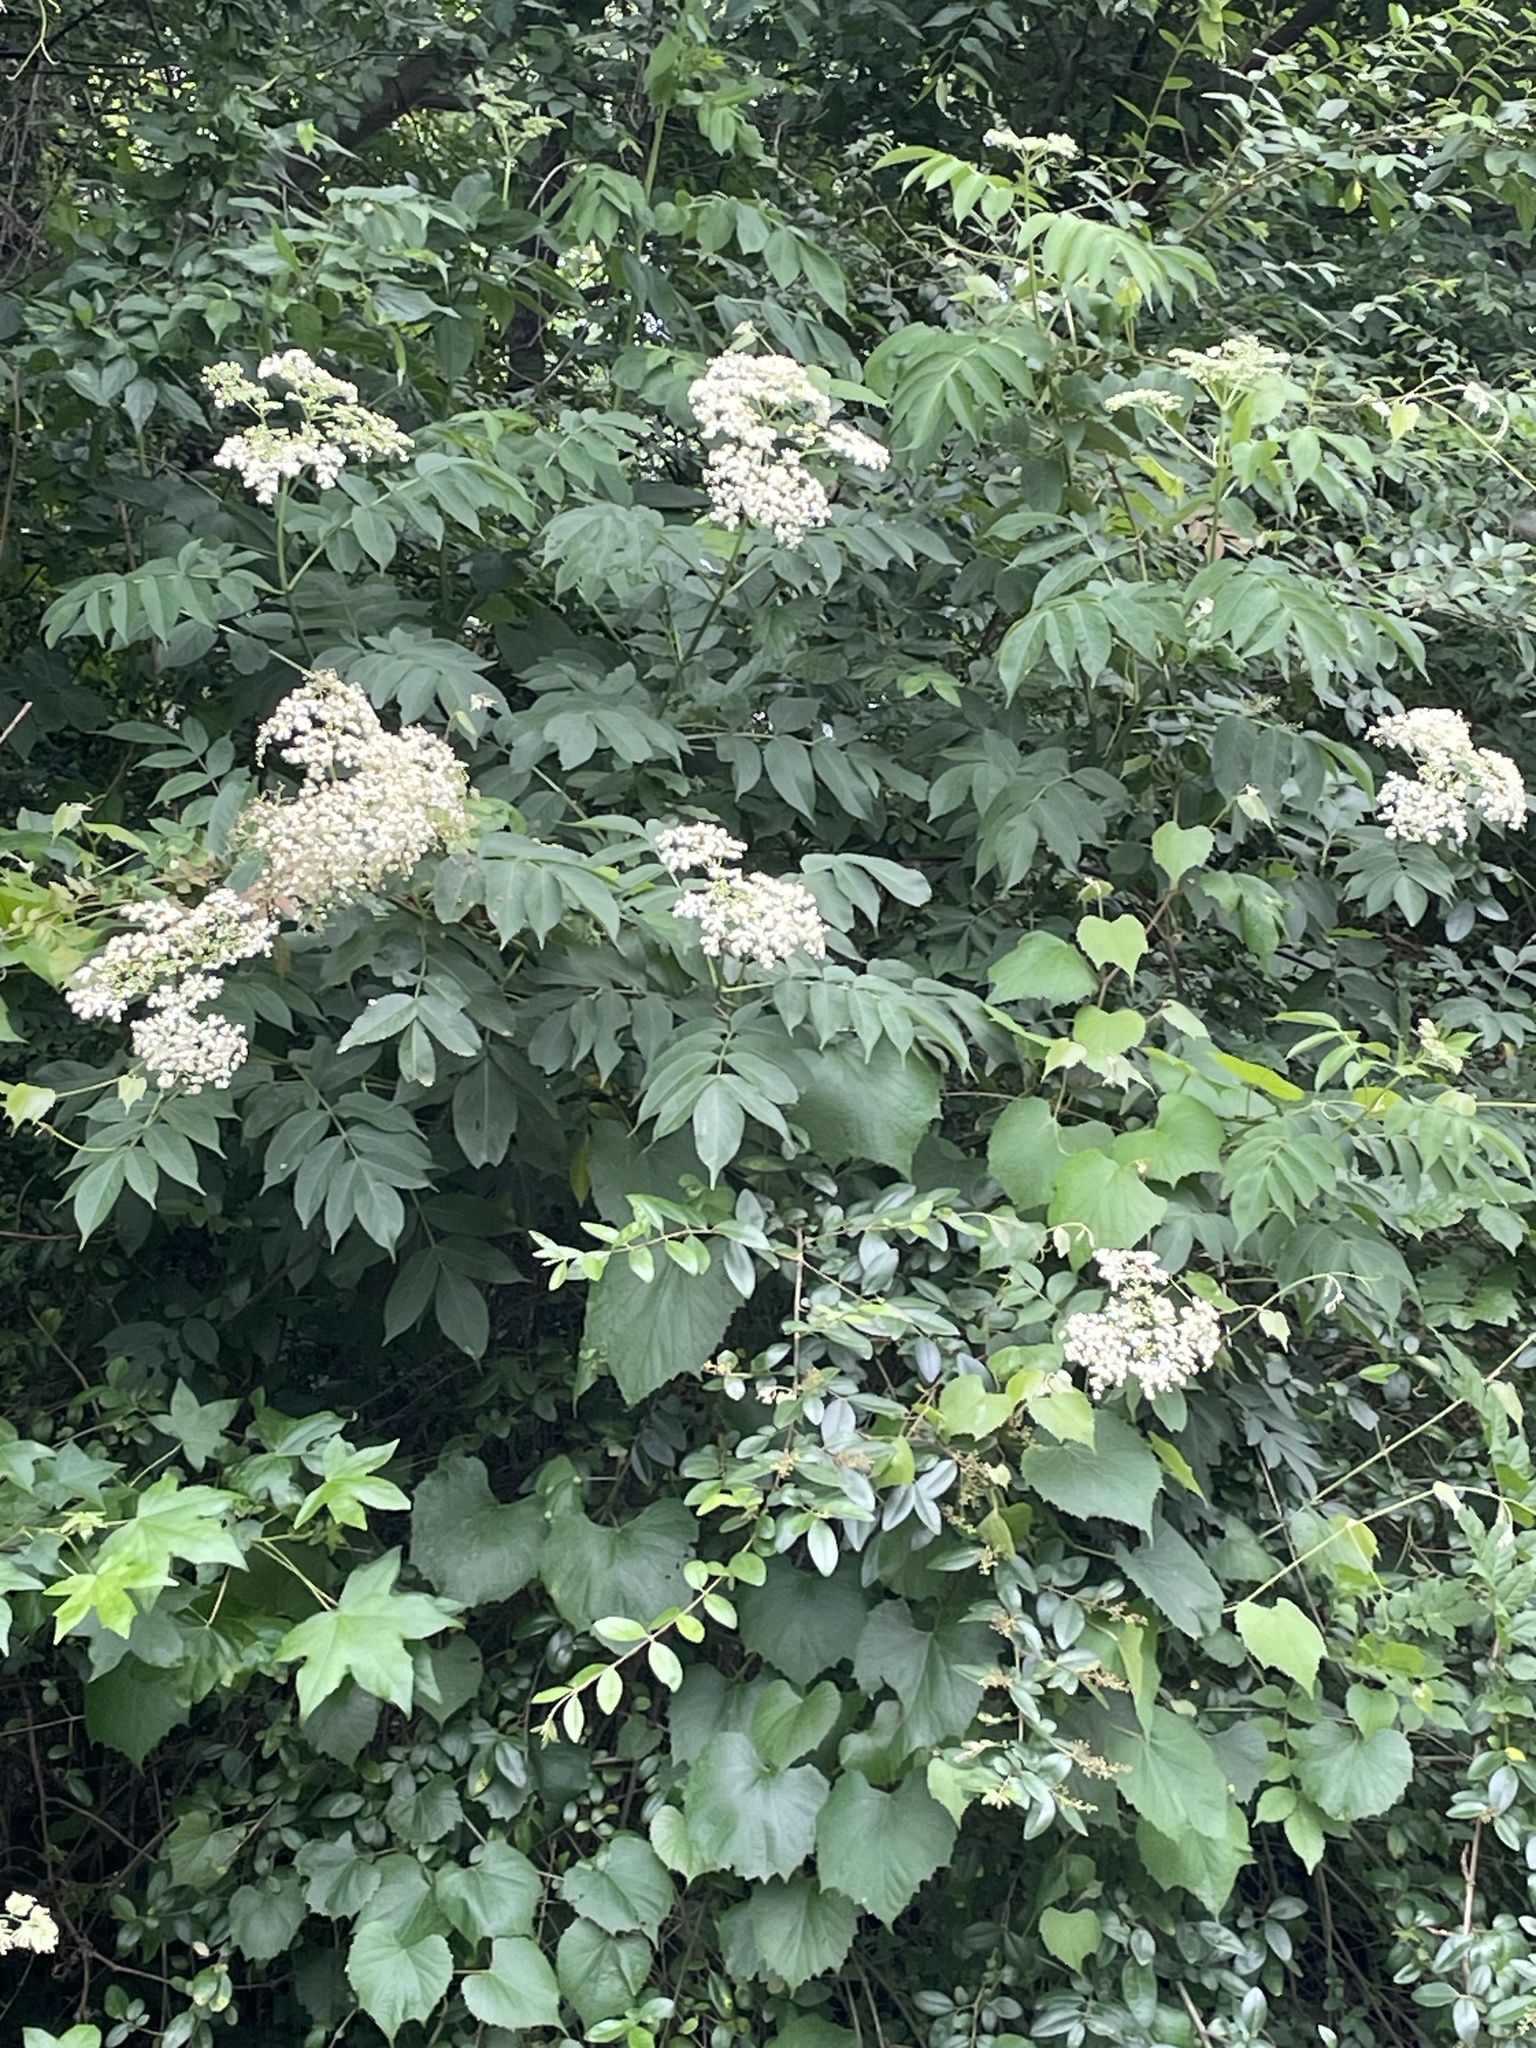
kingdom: Plantae
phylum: Tracheophyta
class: Magnoliopsida
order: Dipsacales
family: Viburnaceae
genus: Sambucus
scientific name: Sambucus canadensis
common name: American elder
